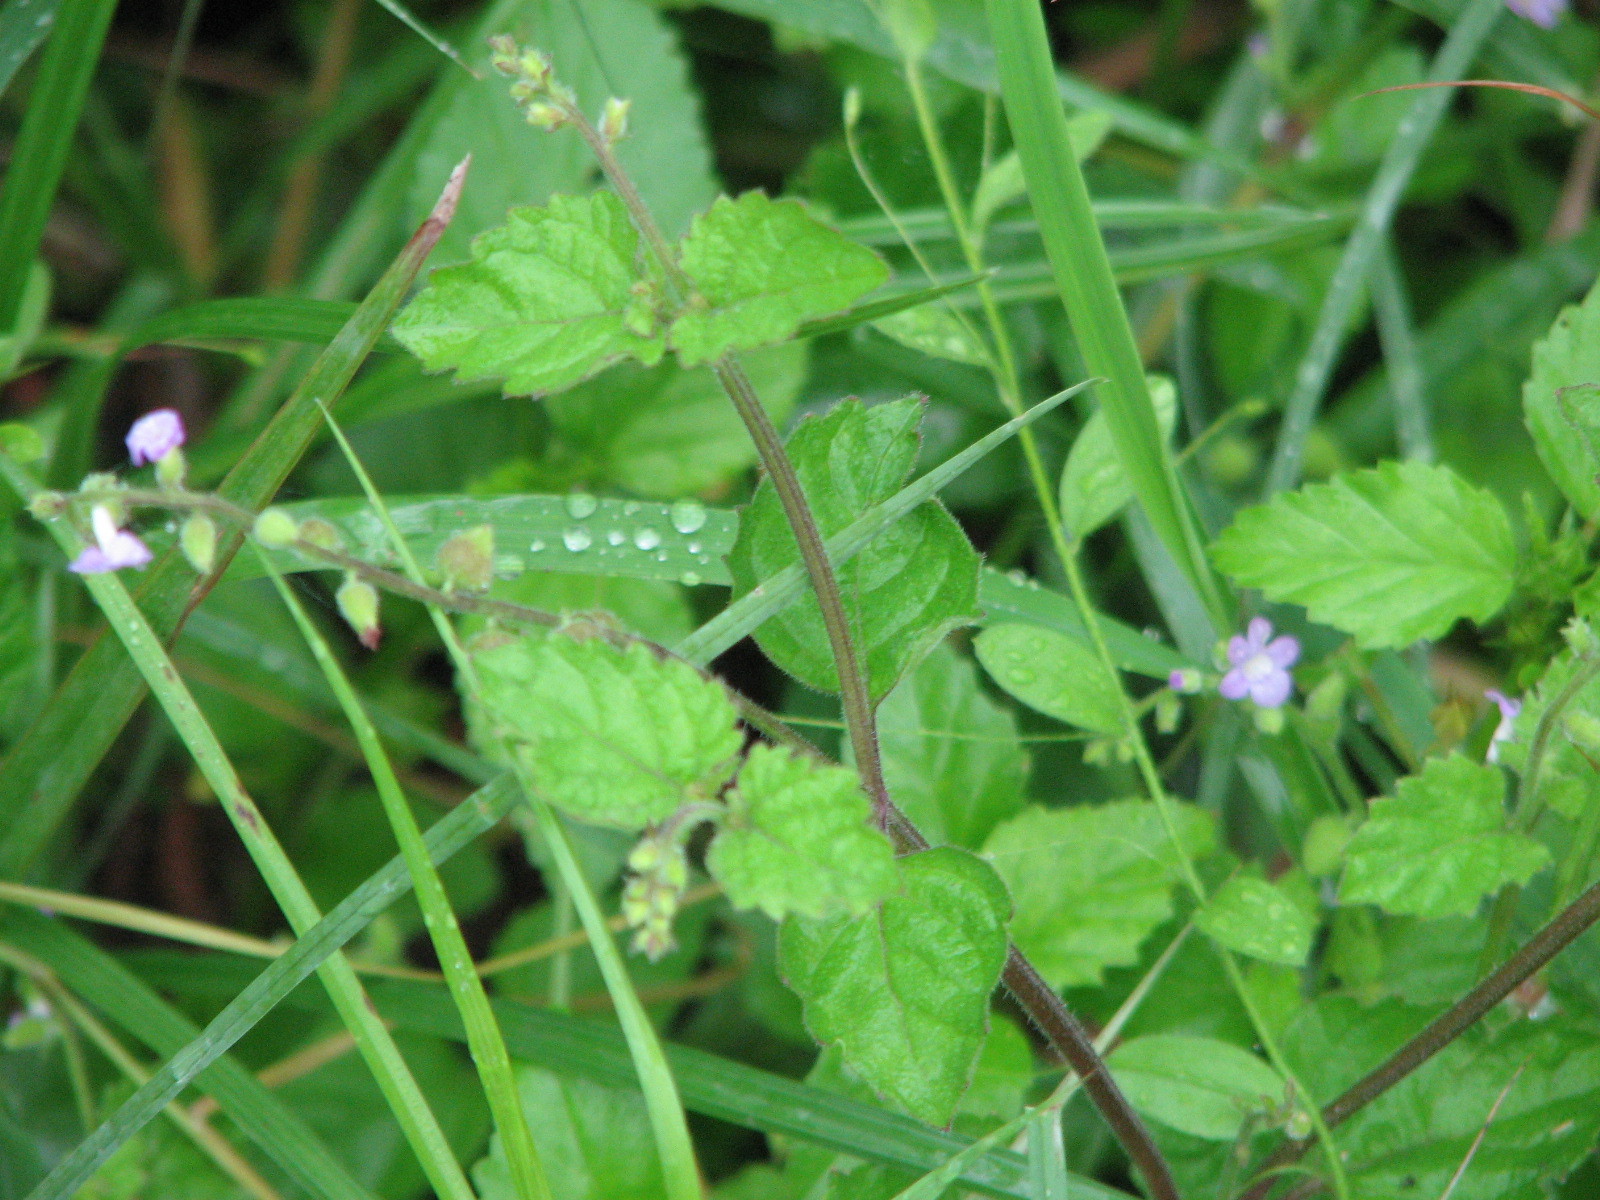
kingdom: Plantae
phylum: Tracheophyta
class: Magnoliopsida
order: Lamiales
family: Verbenaceae
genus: Priva
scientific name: Priva lappulacea
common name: Fasten-'pon-coat
